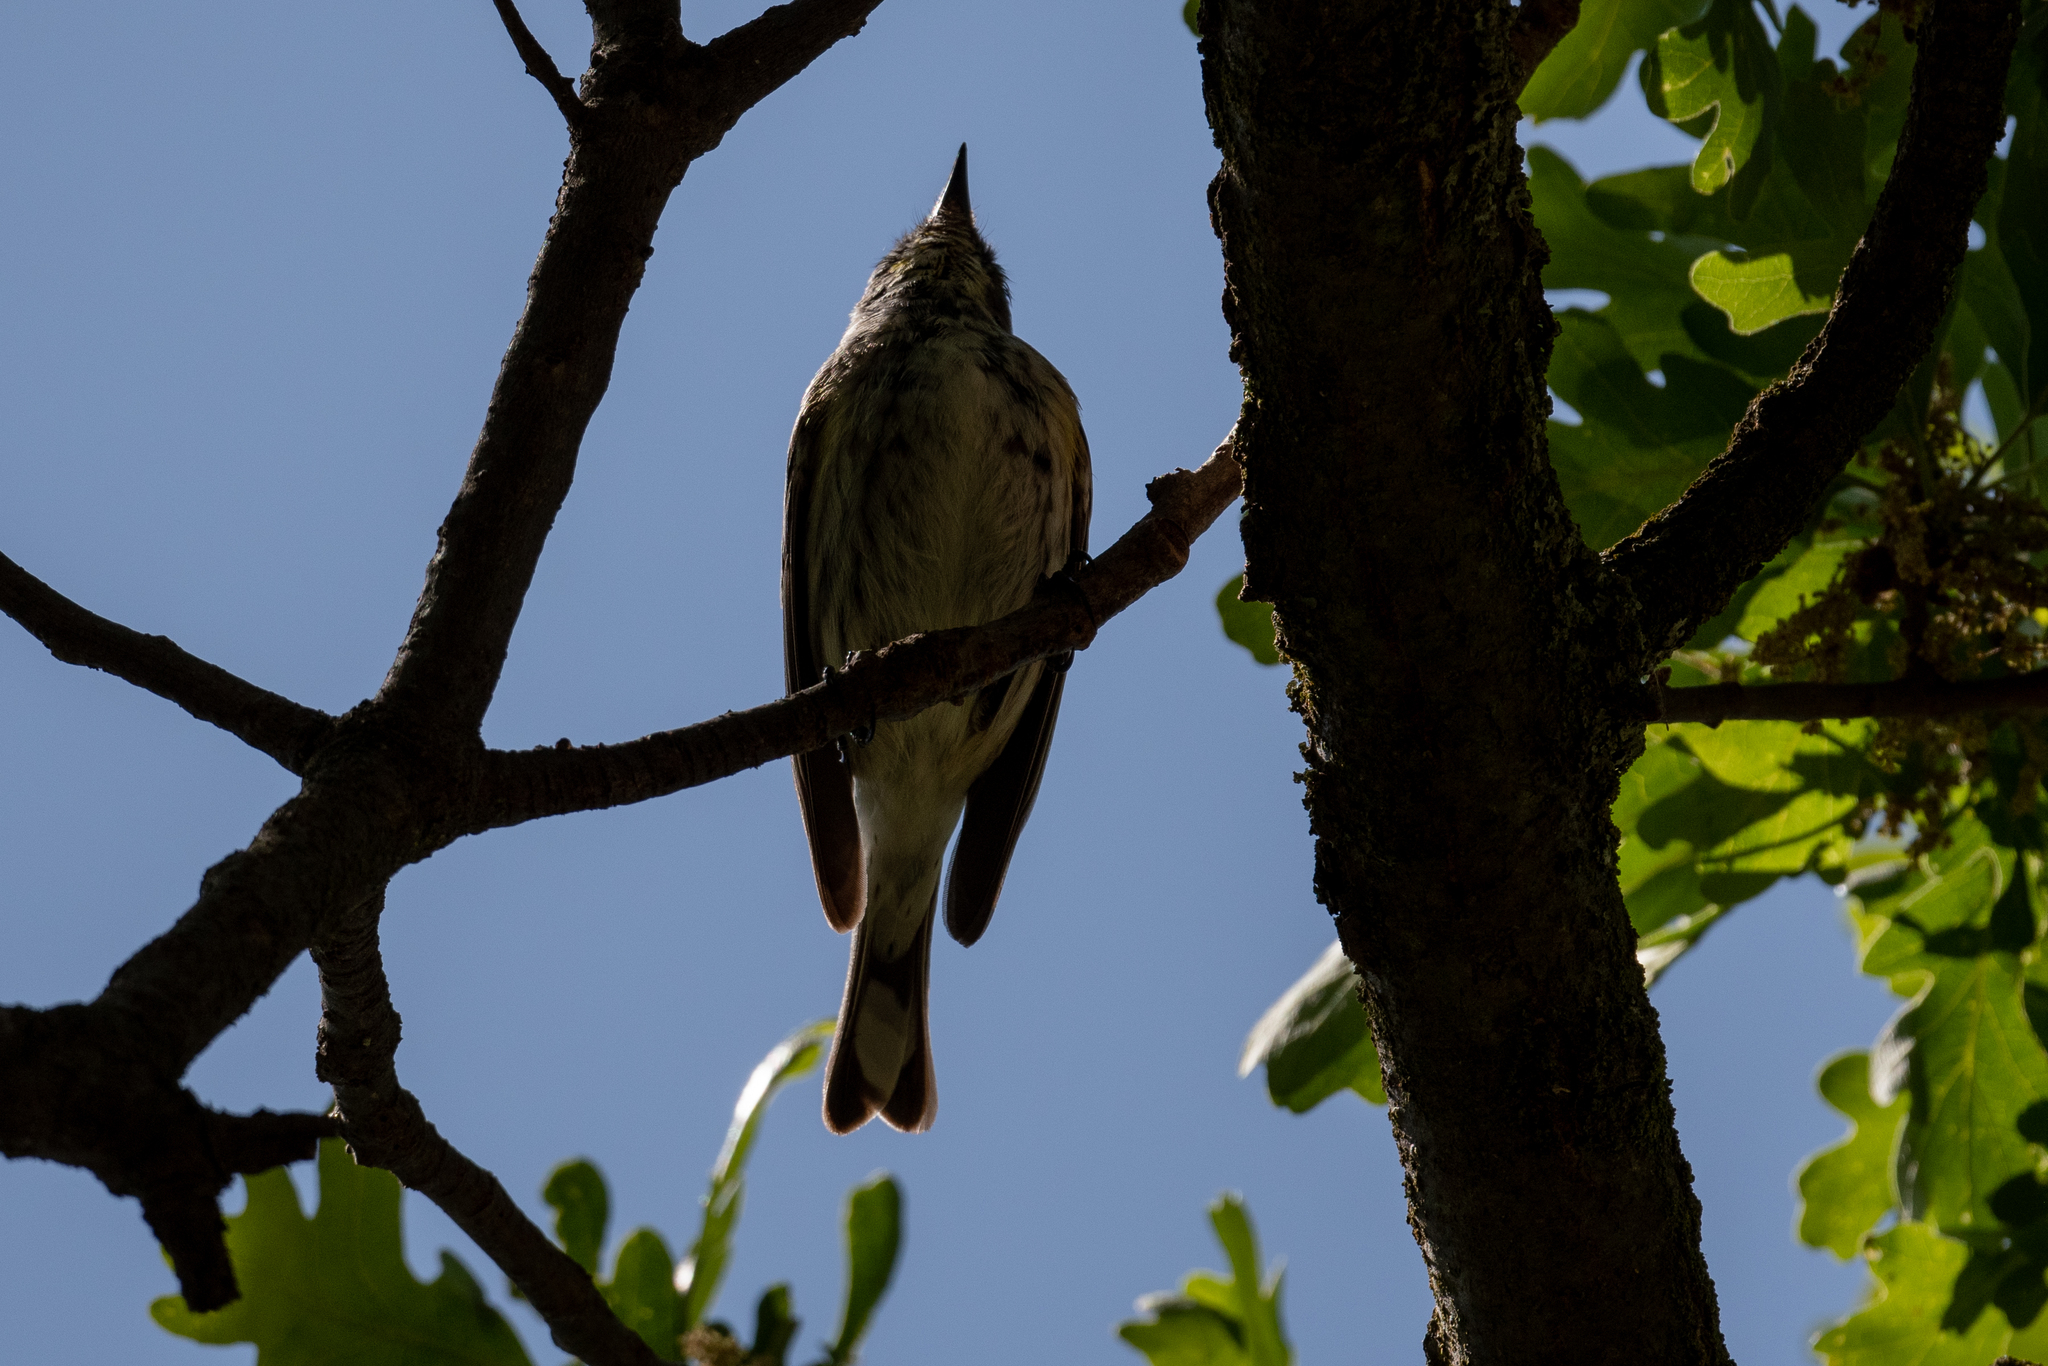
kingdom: Animalia
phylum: Chordata
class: Aves
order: Passeriformes
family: Parulidae
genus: Setophaga
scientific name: Setophaga coronata
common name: Myrtle warbler
